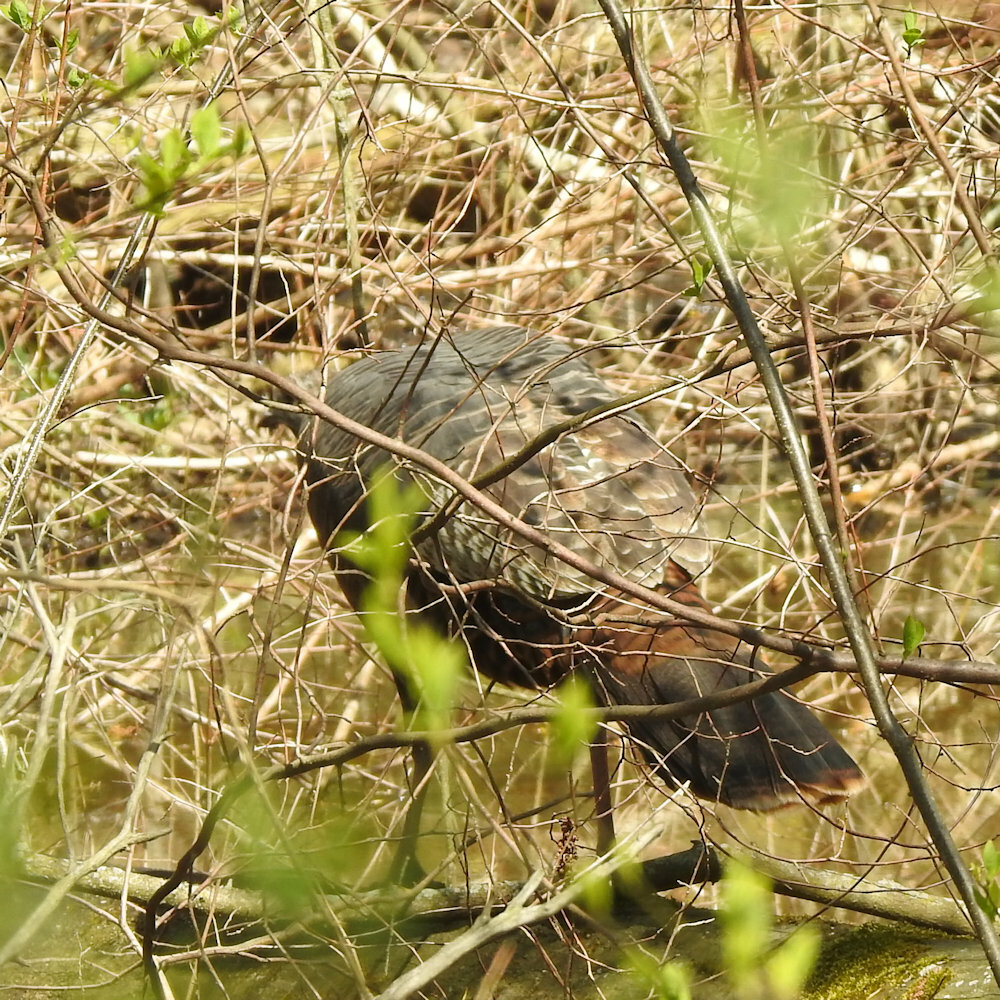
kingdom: Animalia
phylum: Chordata
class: Aves
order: Galliformes
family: Phasianidae
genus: Meleagris
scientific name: Meleagris gallopavo
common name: Wild turkey
